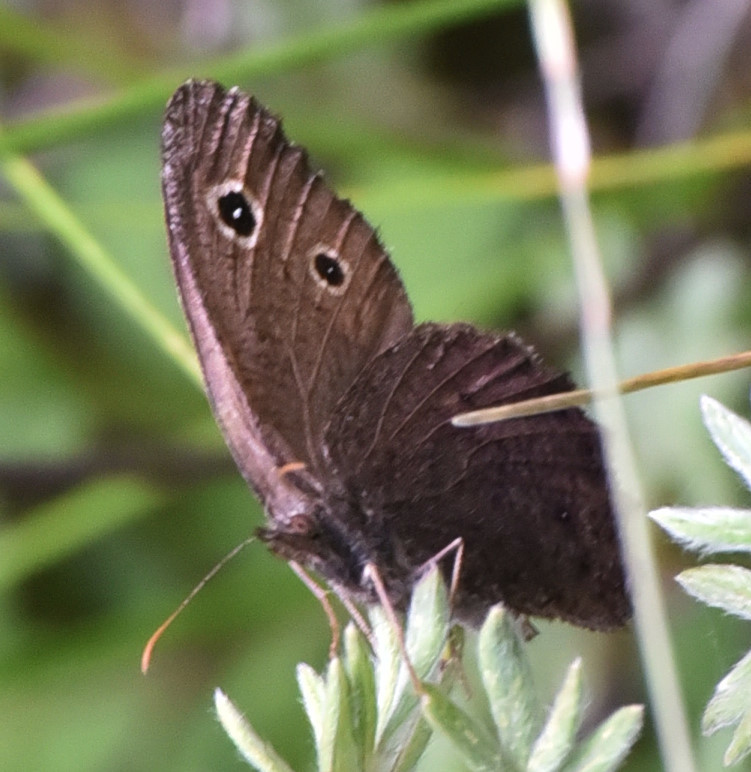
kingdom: Animalia
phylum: Arthropoda
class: Insecta
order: Lepidoptera
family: Nymphalidae
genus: Cercyonis
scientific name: Cercyonis oetus
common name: Small wood-nymph
